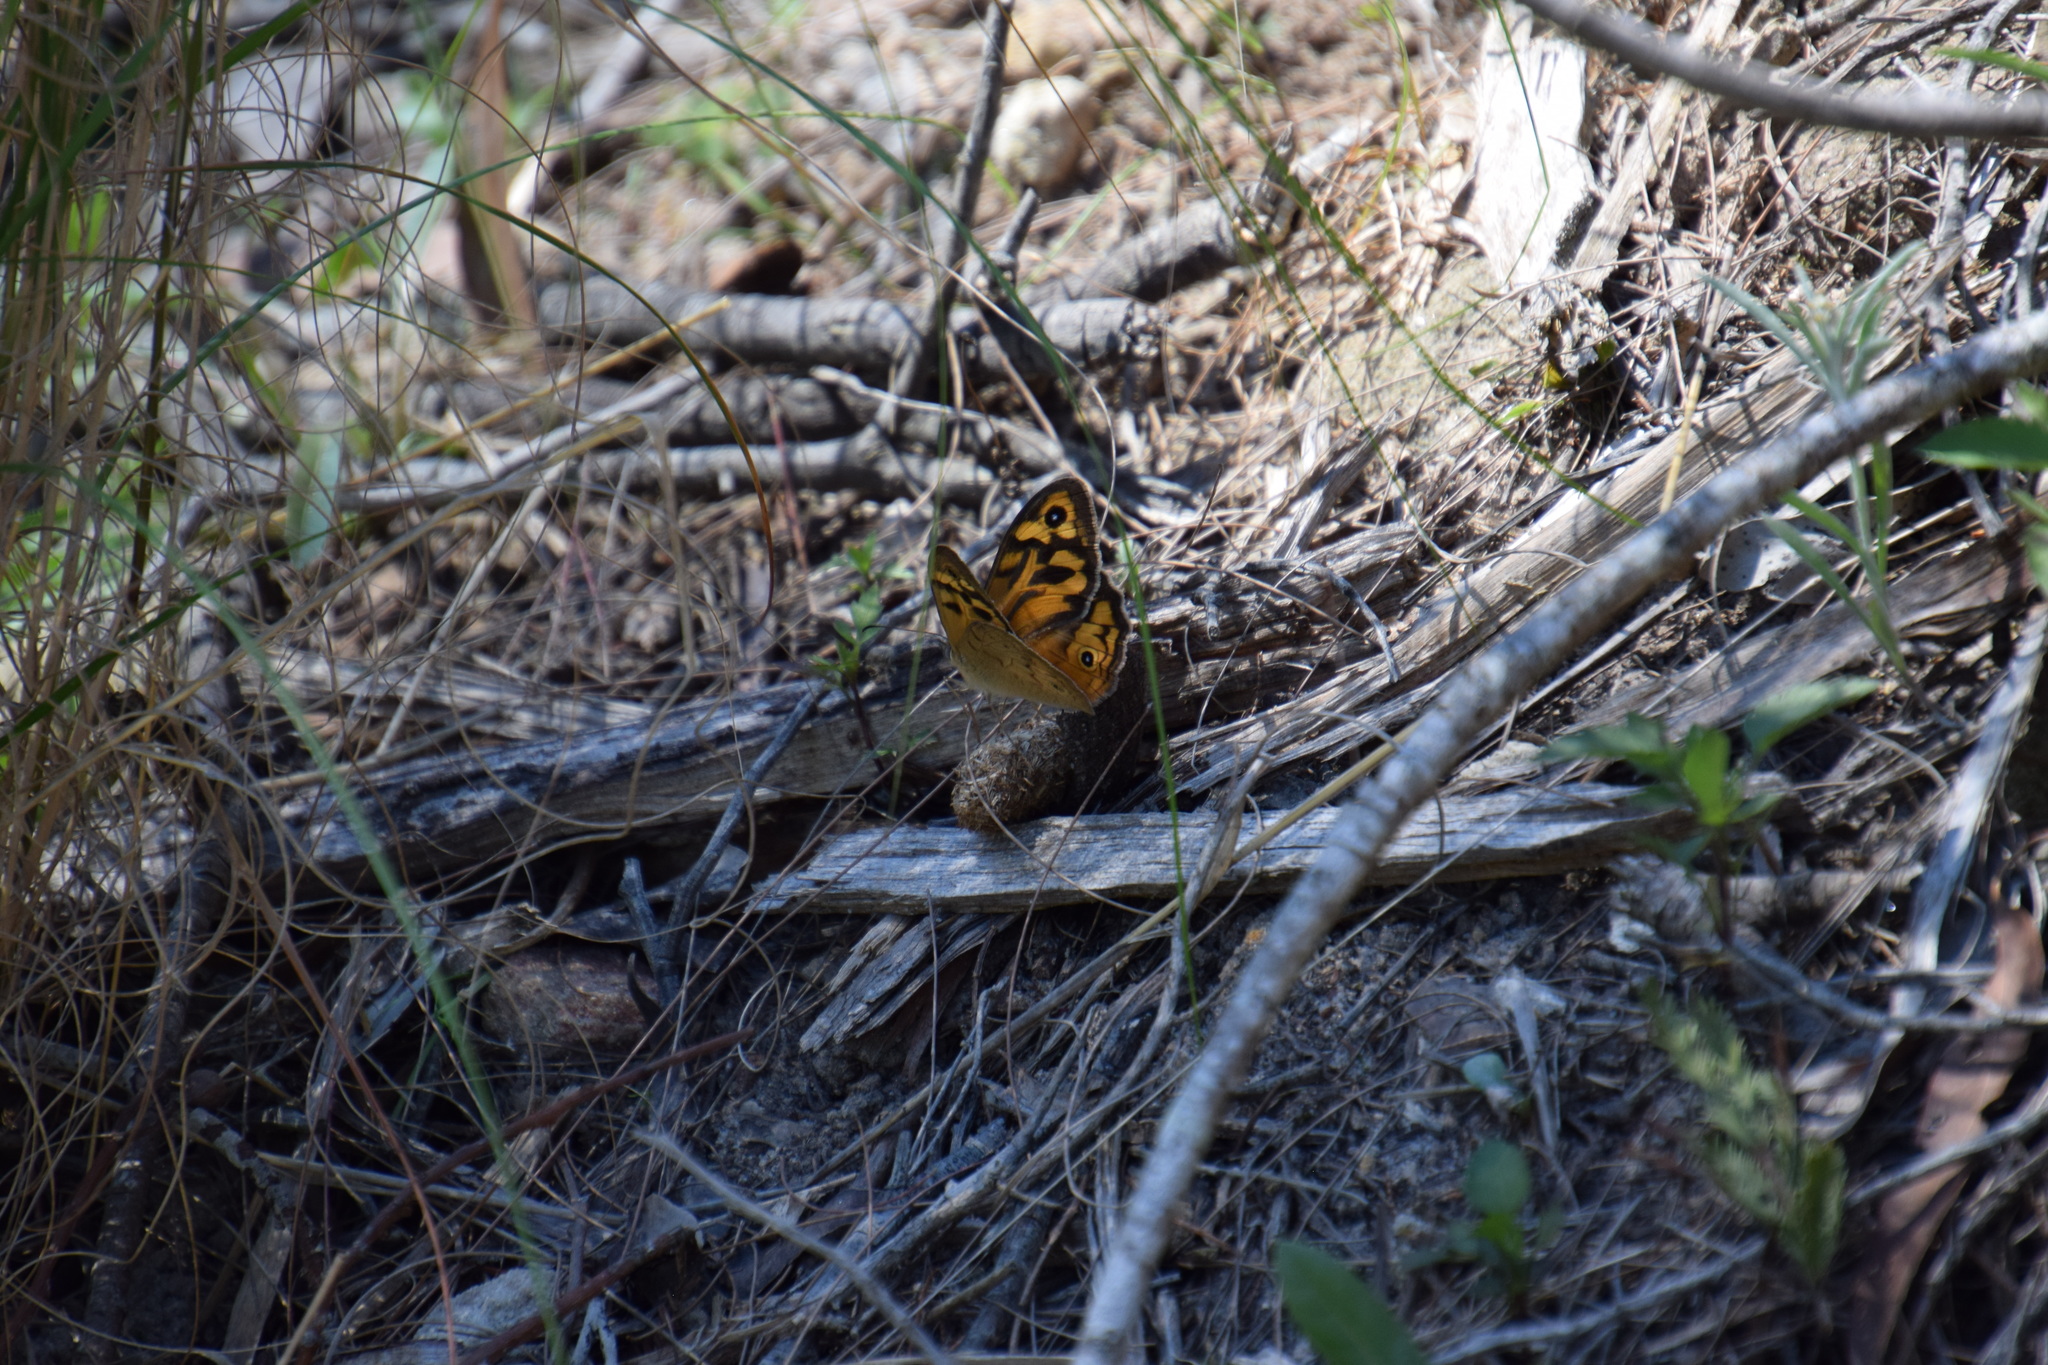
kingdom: Animalia
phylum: Arthropoda
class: Insecta
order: Lepidoptera
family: Nymphalidae
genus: Heteronympha
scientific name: Heteronympha merope
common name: Common brown
